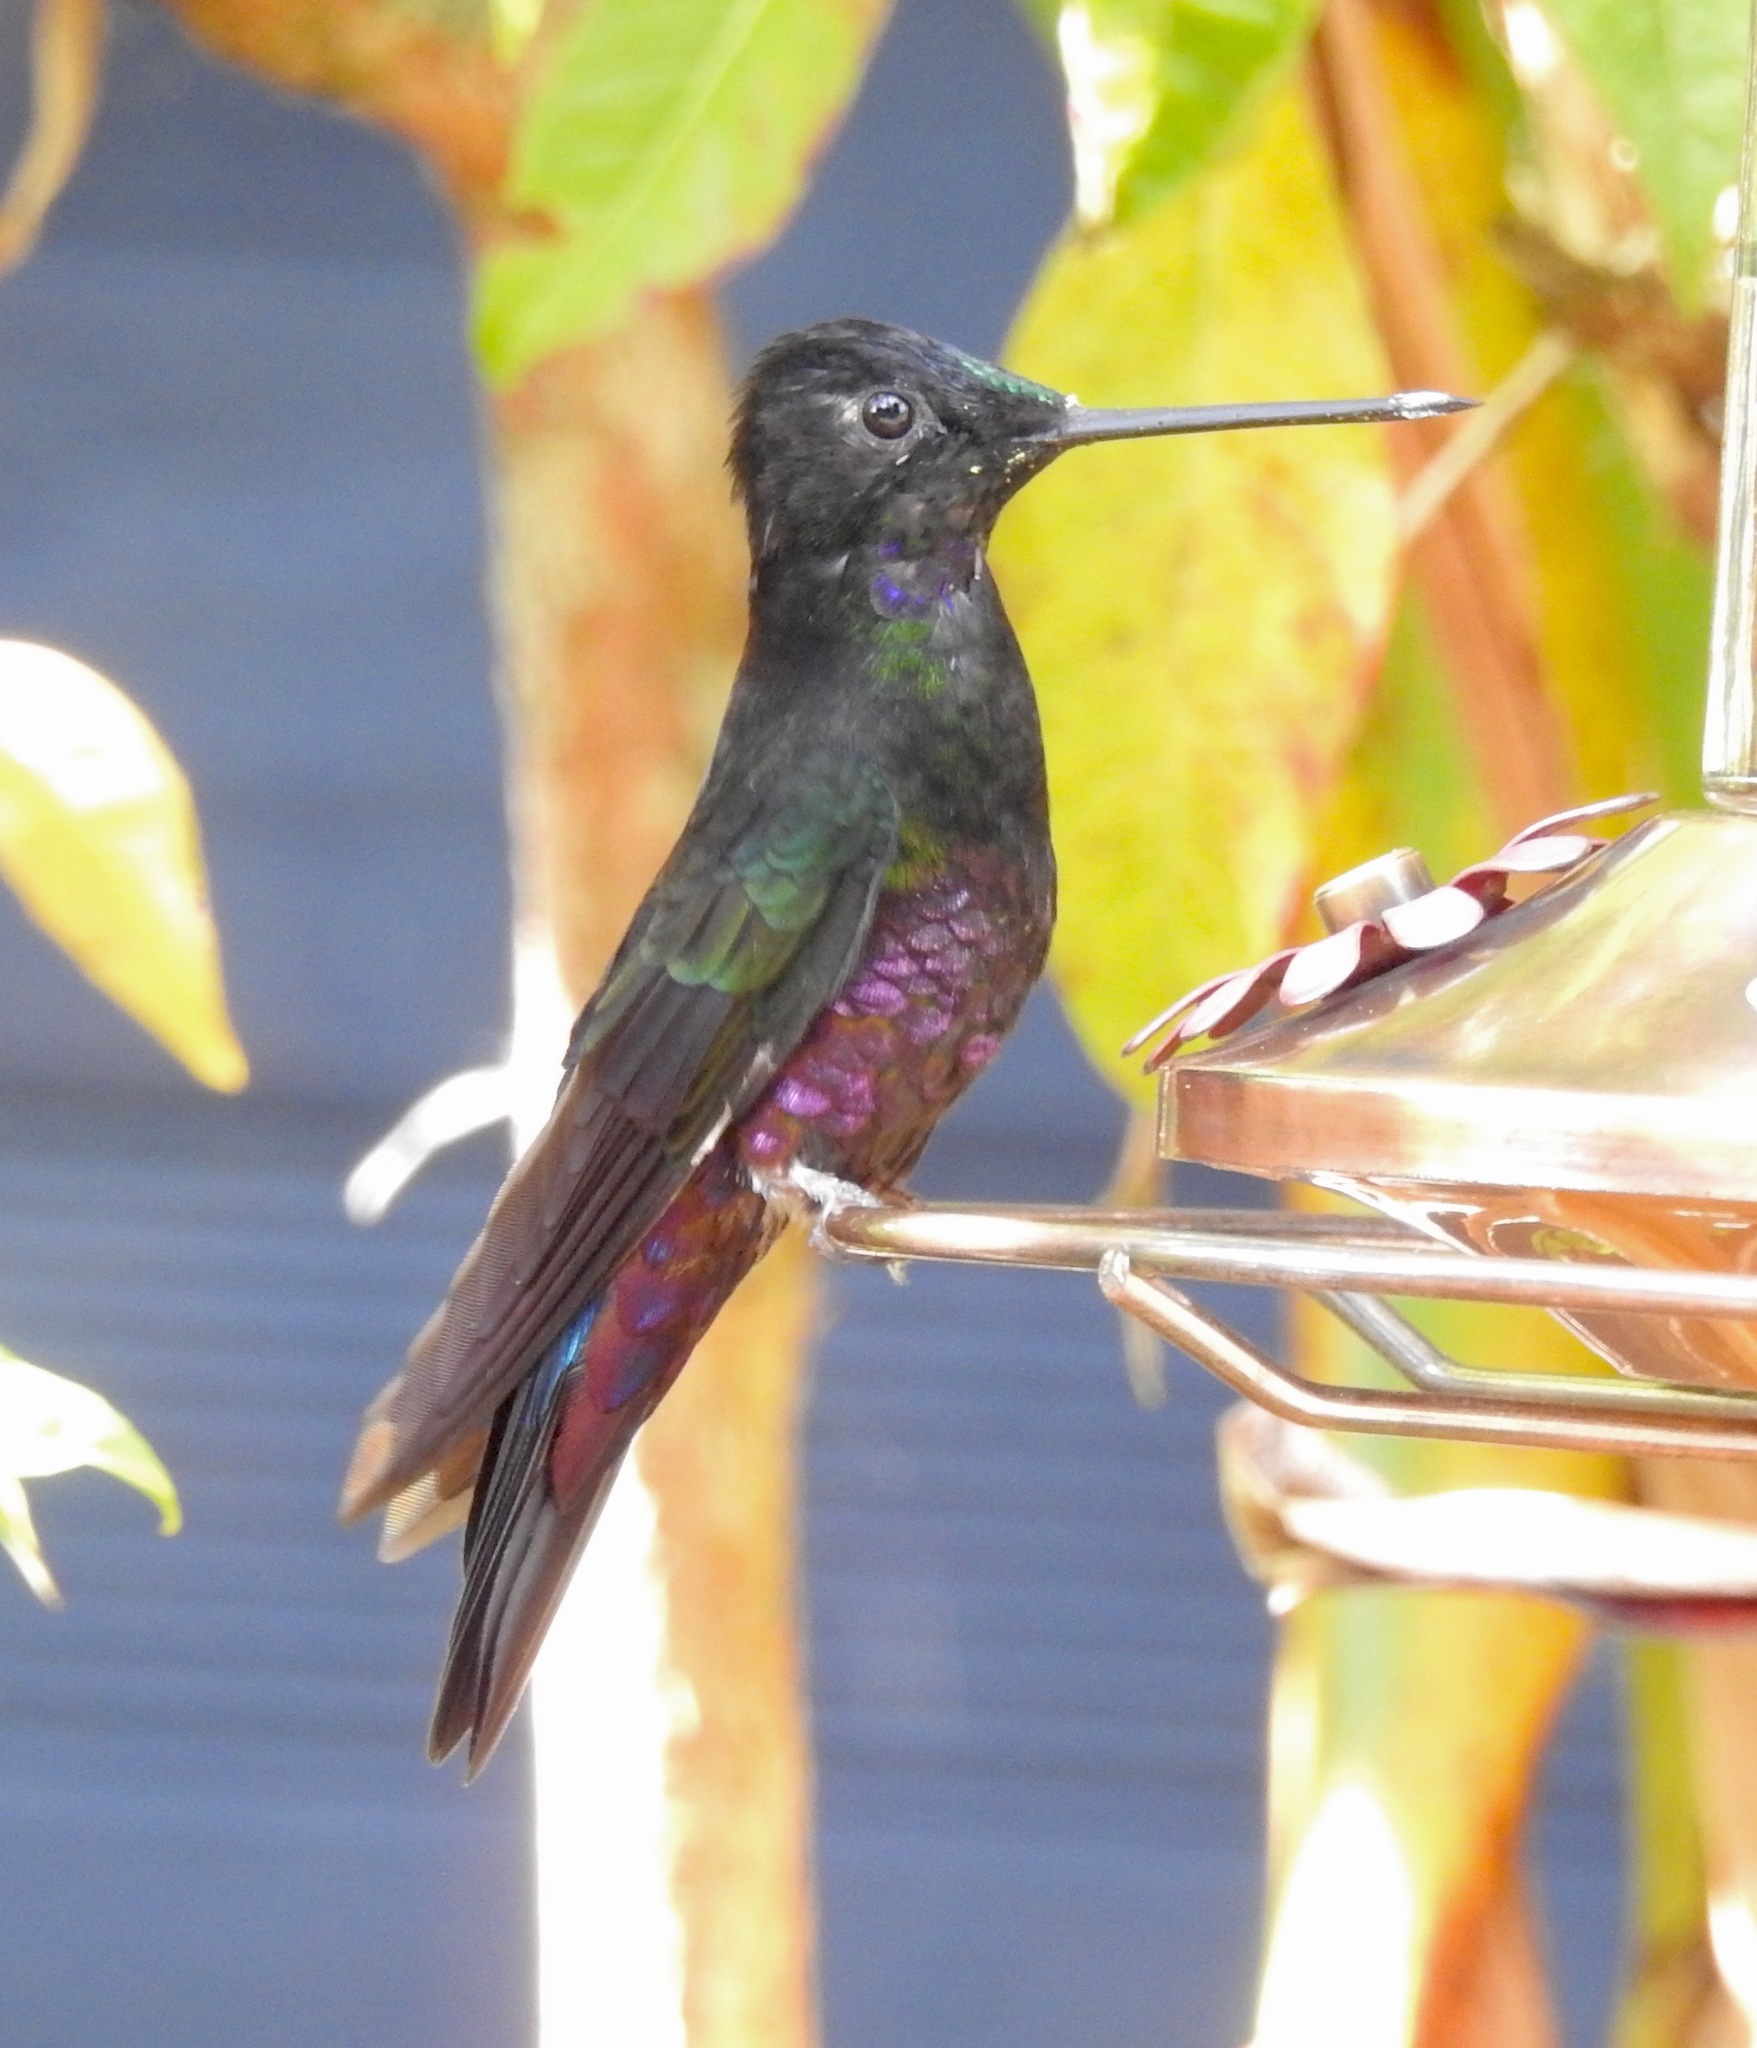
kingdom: Animalia
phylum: Chordata
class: Aves
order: Apodiformes
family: Trochilidae
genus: Coeligena
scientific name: Coeligena helianthea
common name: Blue-throated starfrontlet
